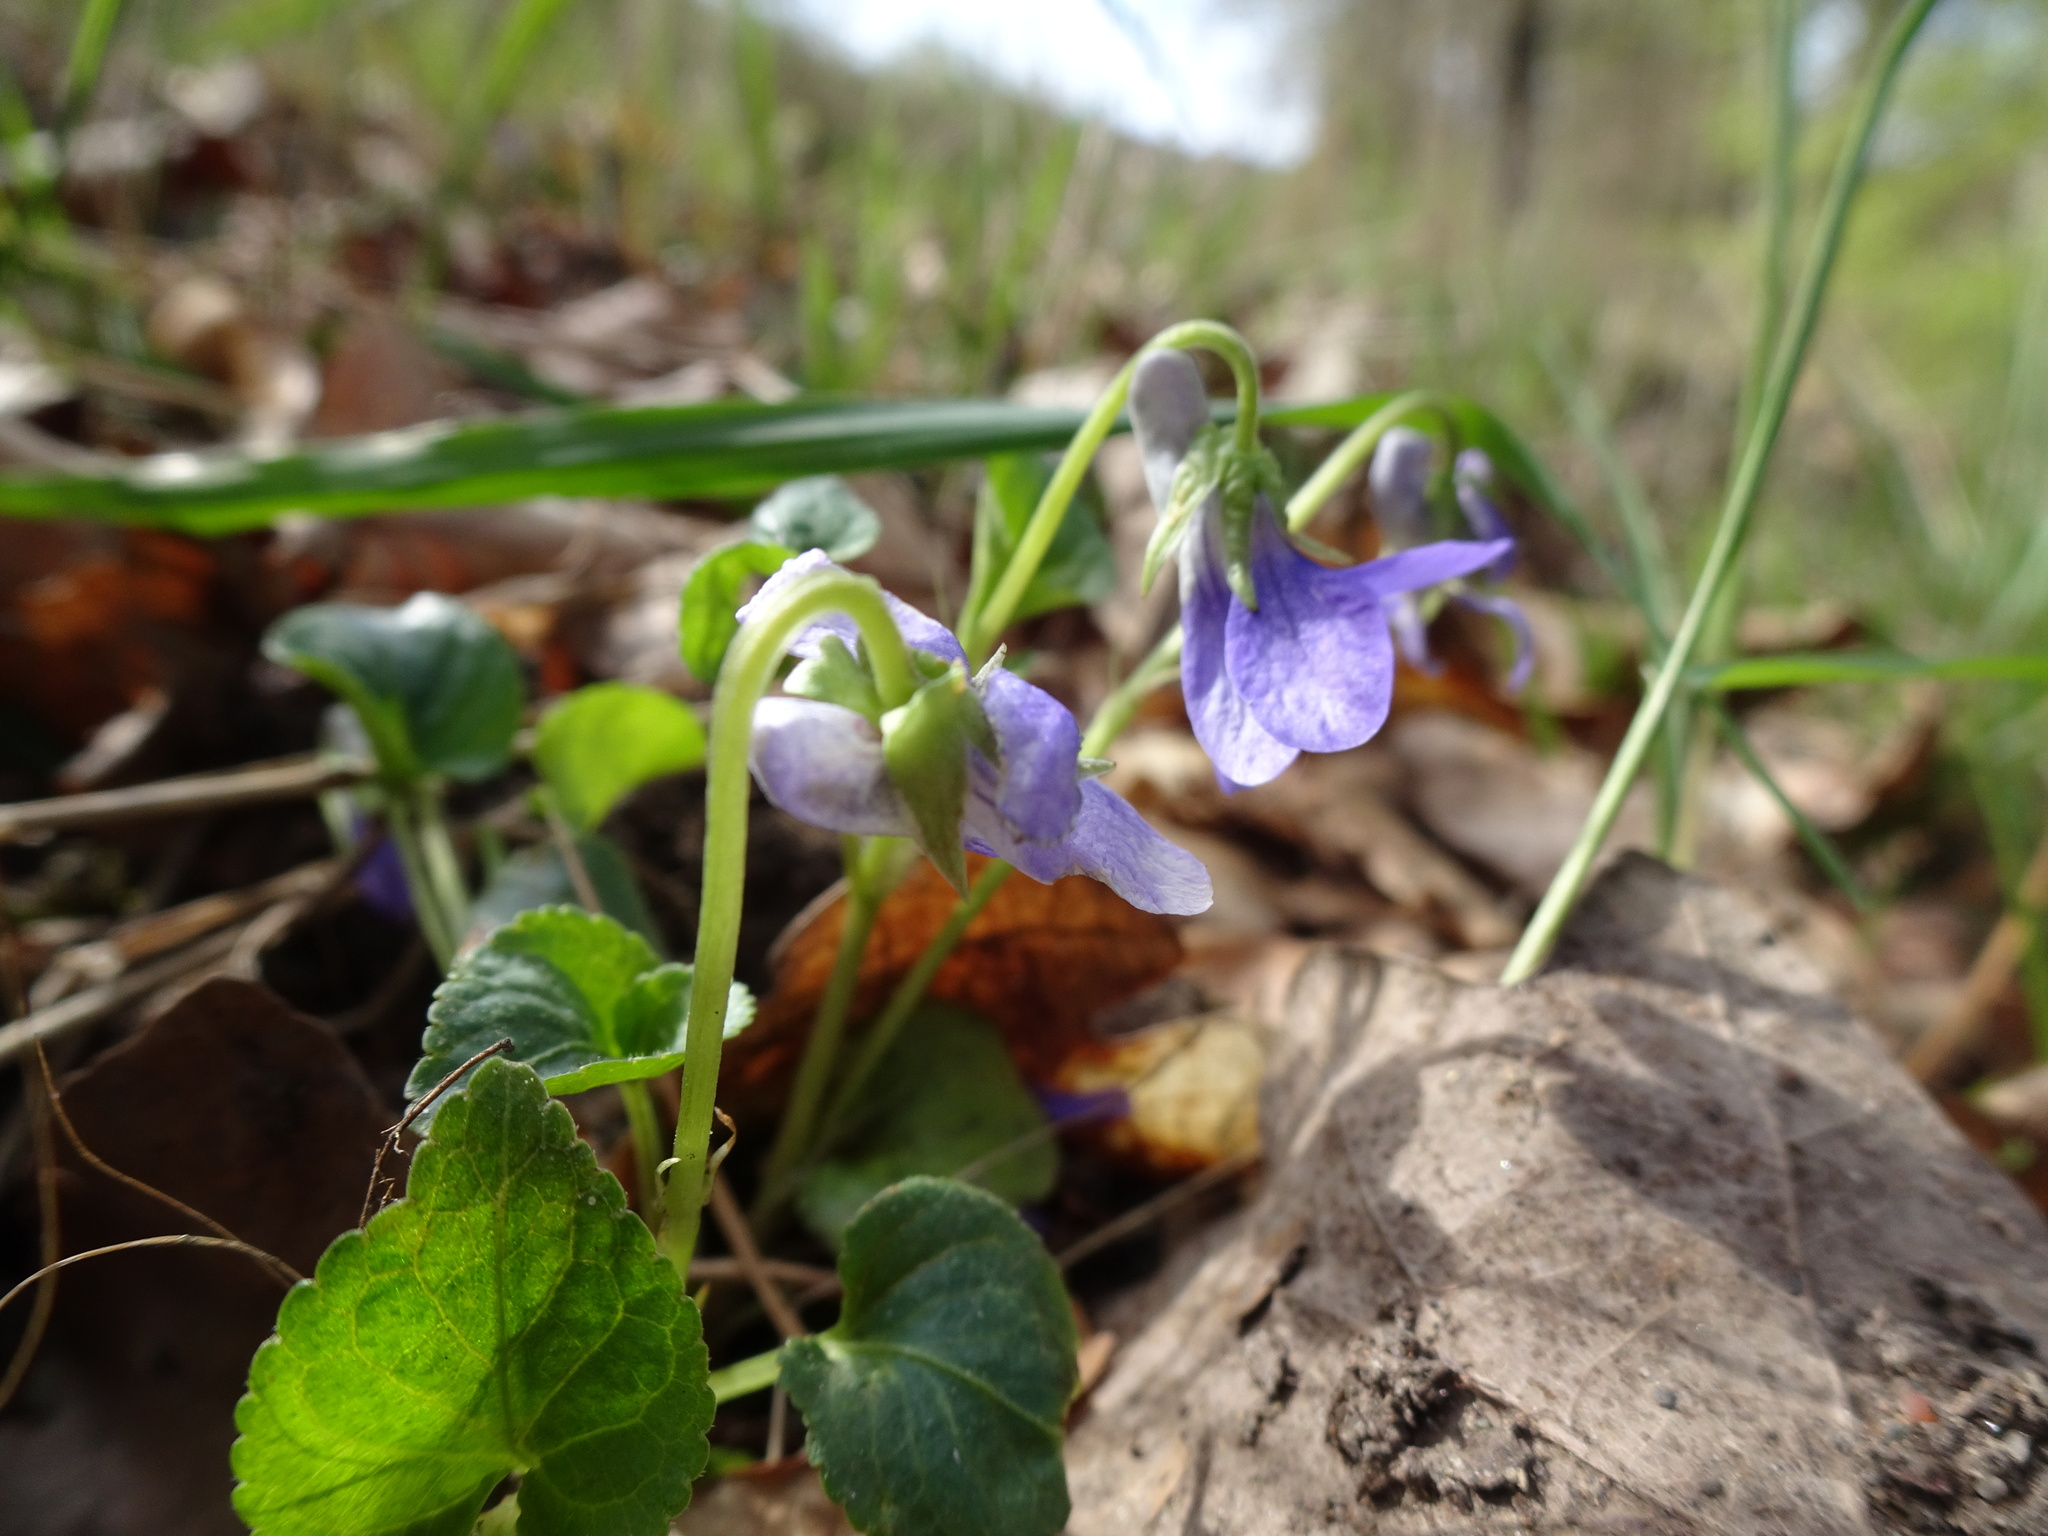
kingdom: Plantae
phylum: Tracheophyta
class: Magnoliopsida
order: Malpighiales
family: Violaceae
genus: Viola
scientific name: Viola bavarica
